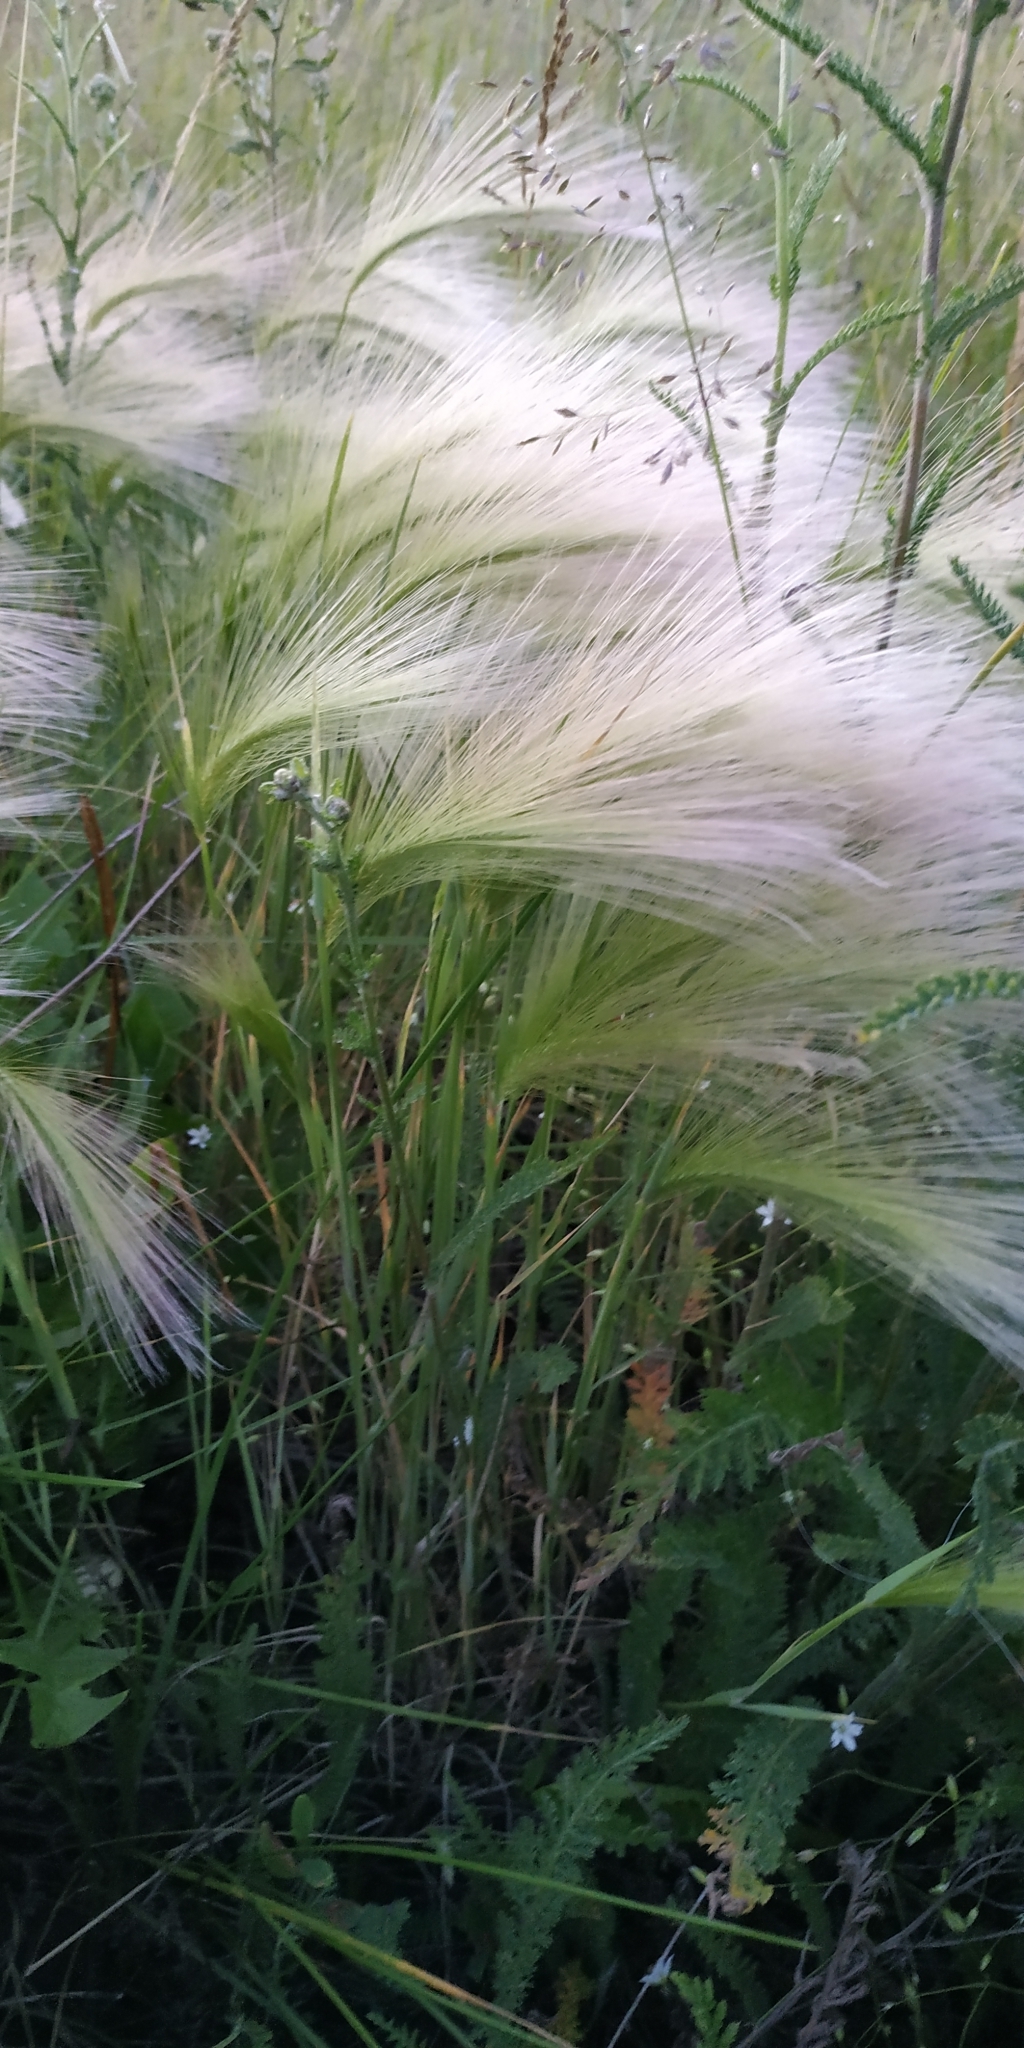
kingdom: Plantae
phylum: Tracheophyta
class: Liliopsida
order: Poales
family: Poaceae
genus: Hordeum
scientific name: Hordeum jubatum
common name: Foxtail barley
